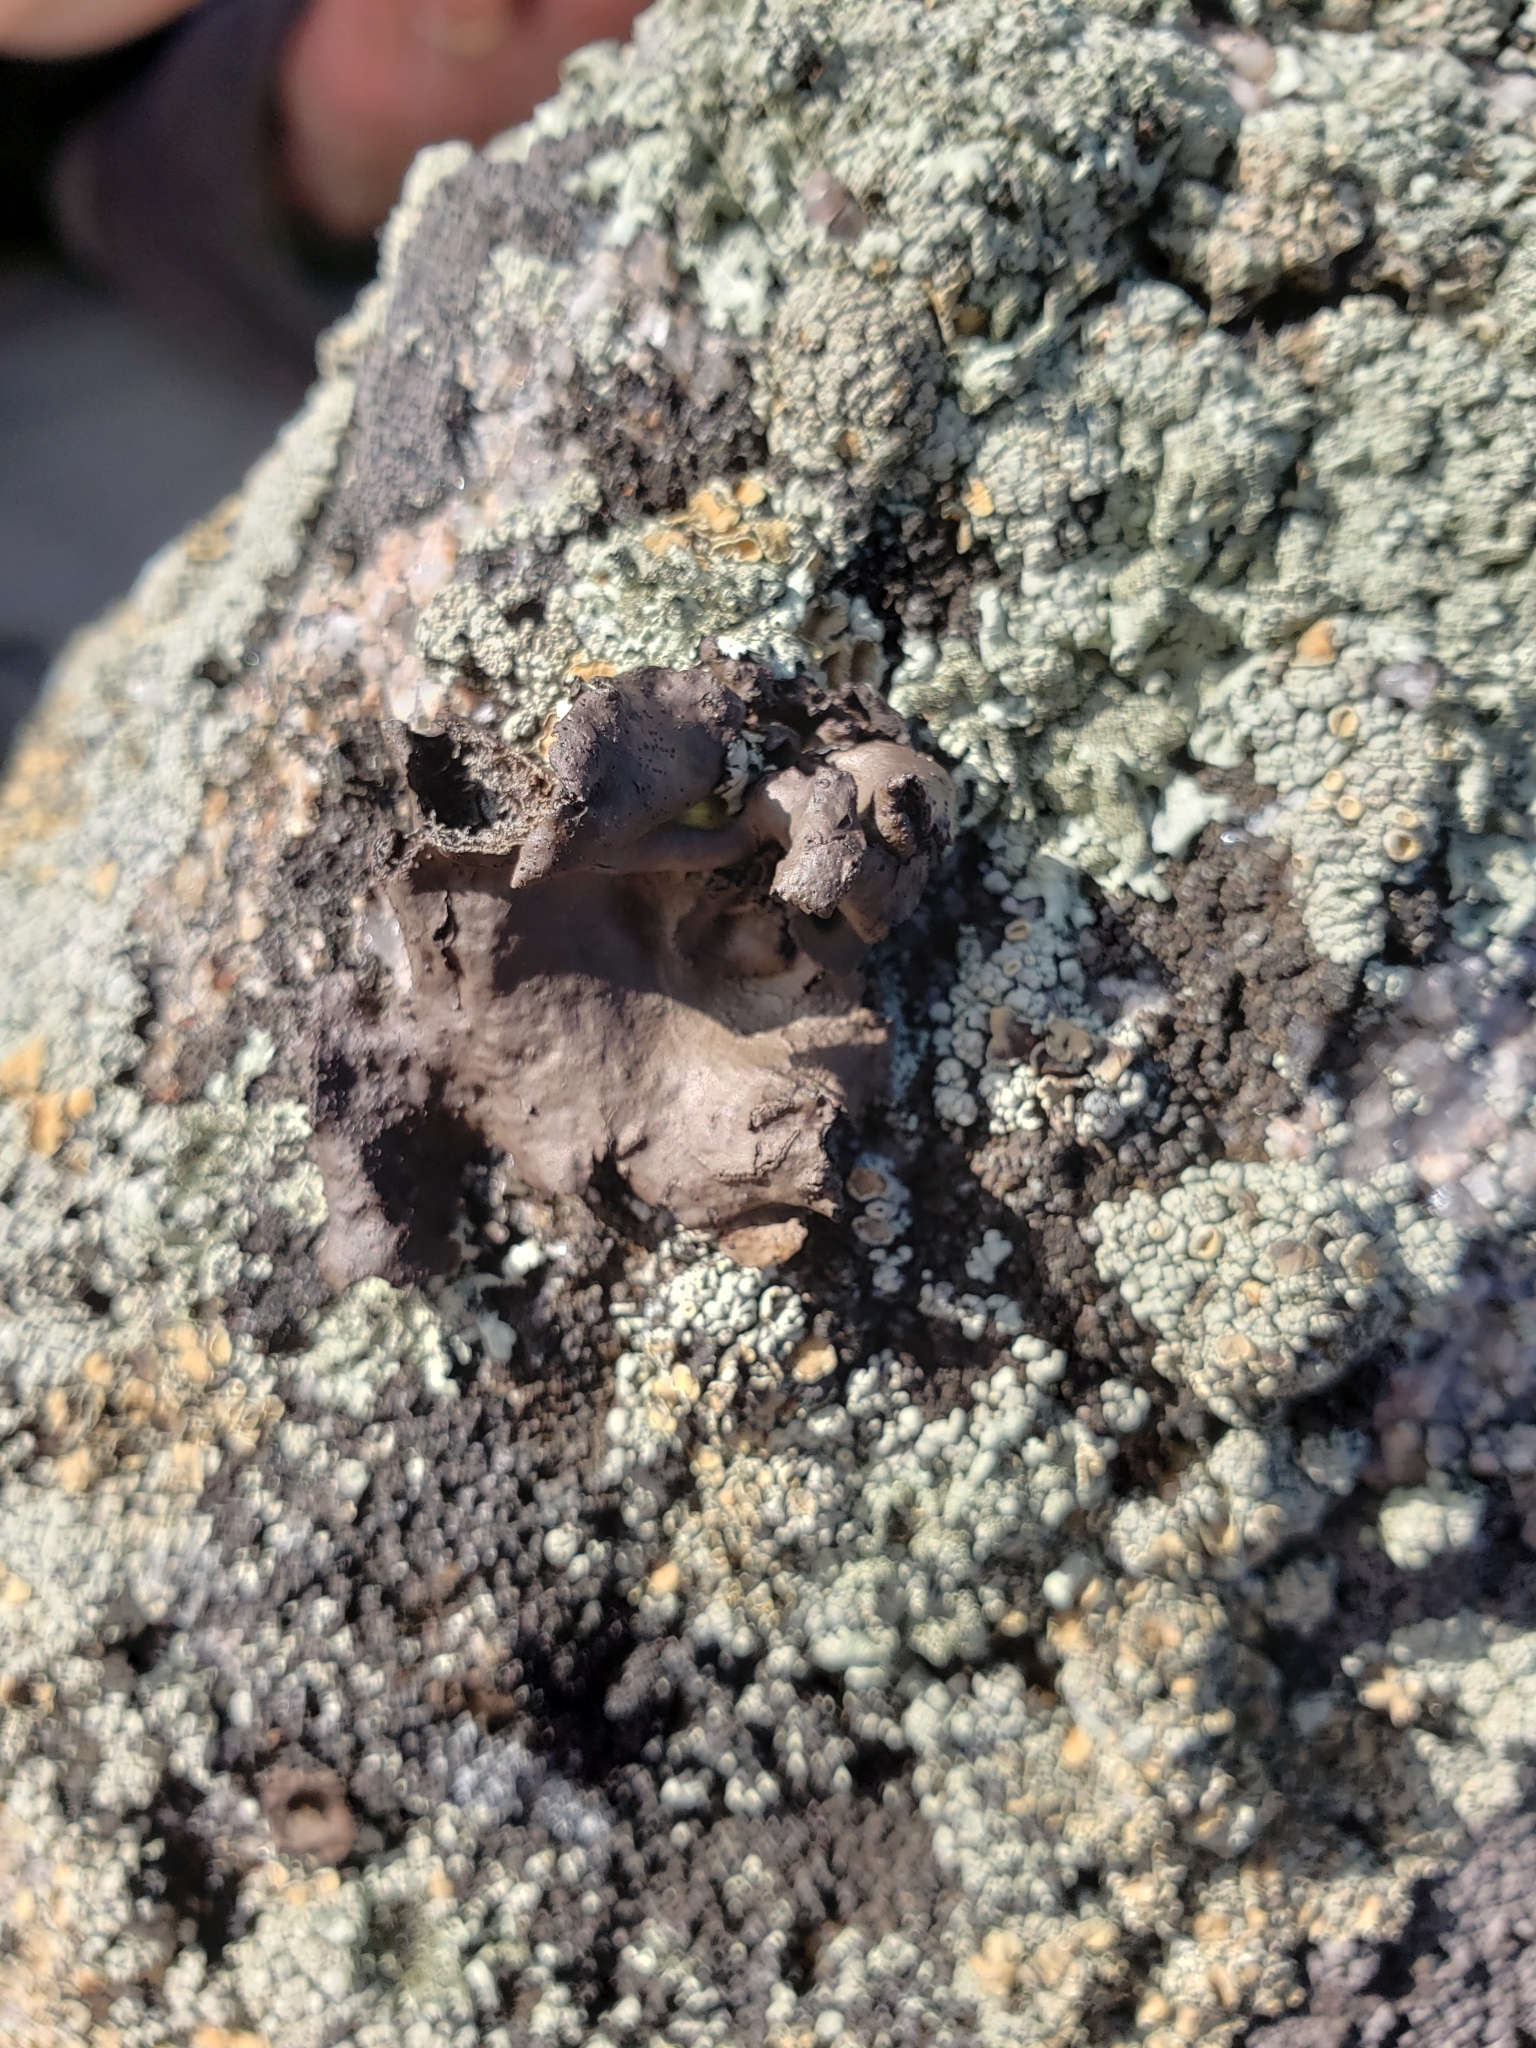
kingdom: Fungi
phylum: Ascomycota
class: Lecanoromycetes
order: Umbilicariales
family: Umbilicariaceae
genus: Umbilicaria
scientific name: Umbilicaria muhlenbergii
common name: Lesser rocktripe
